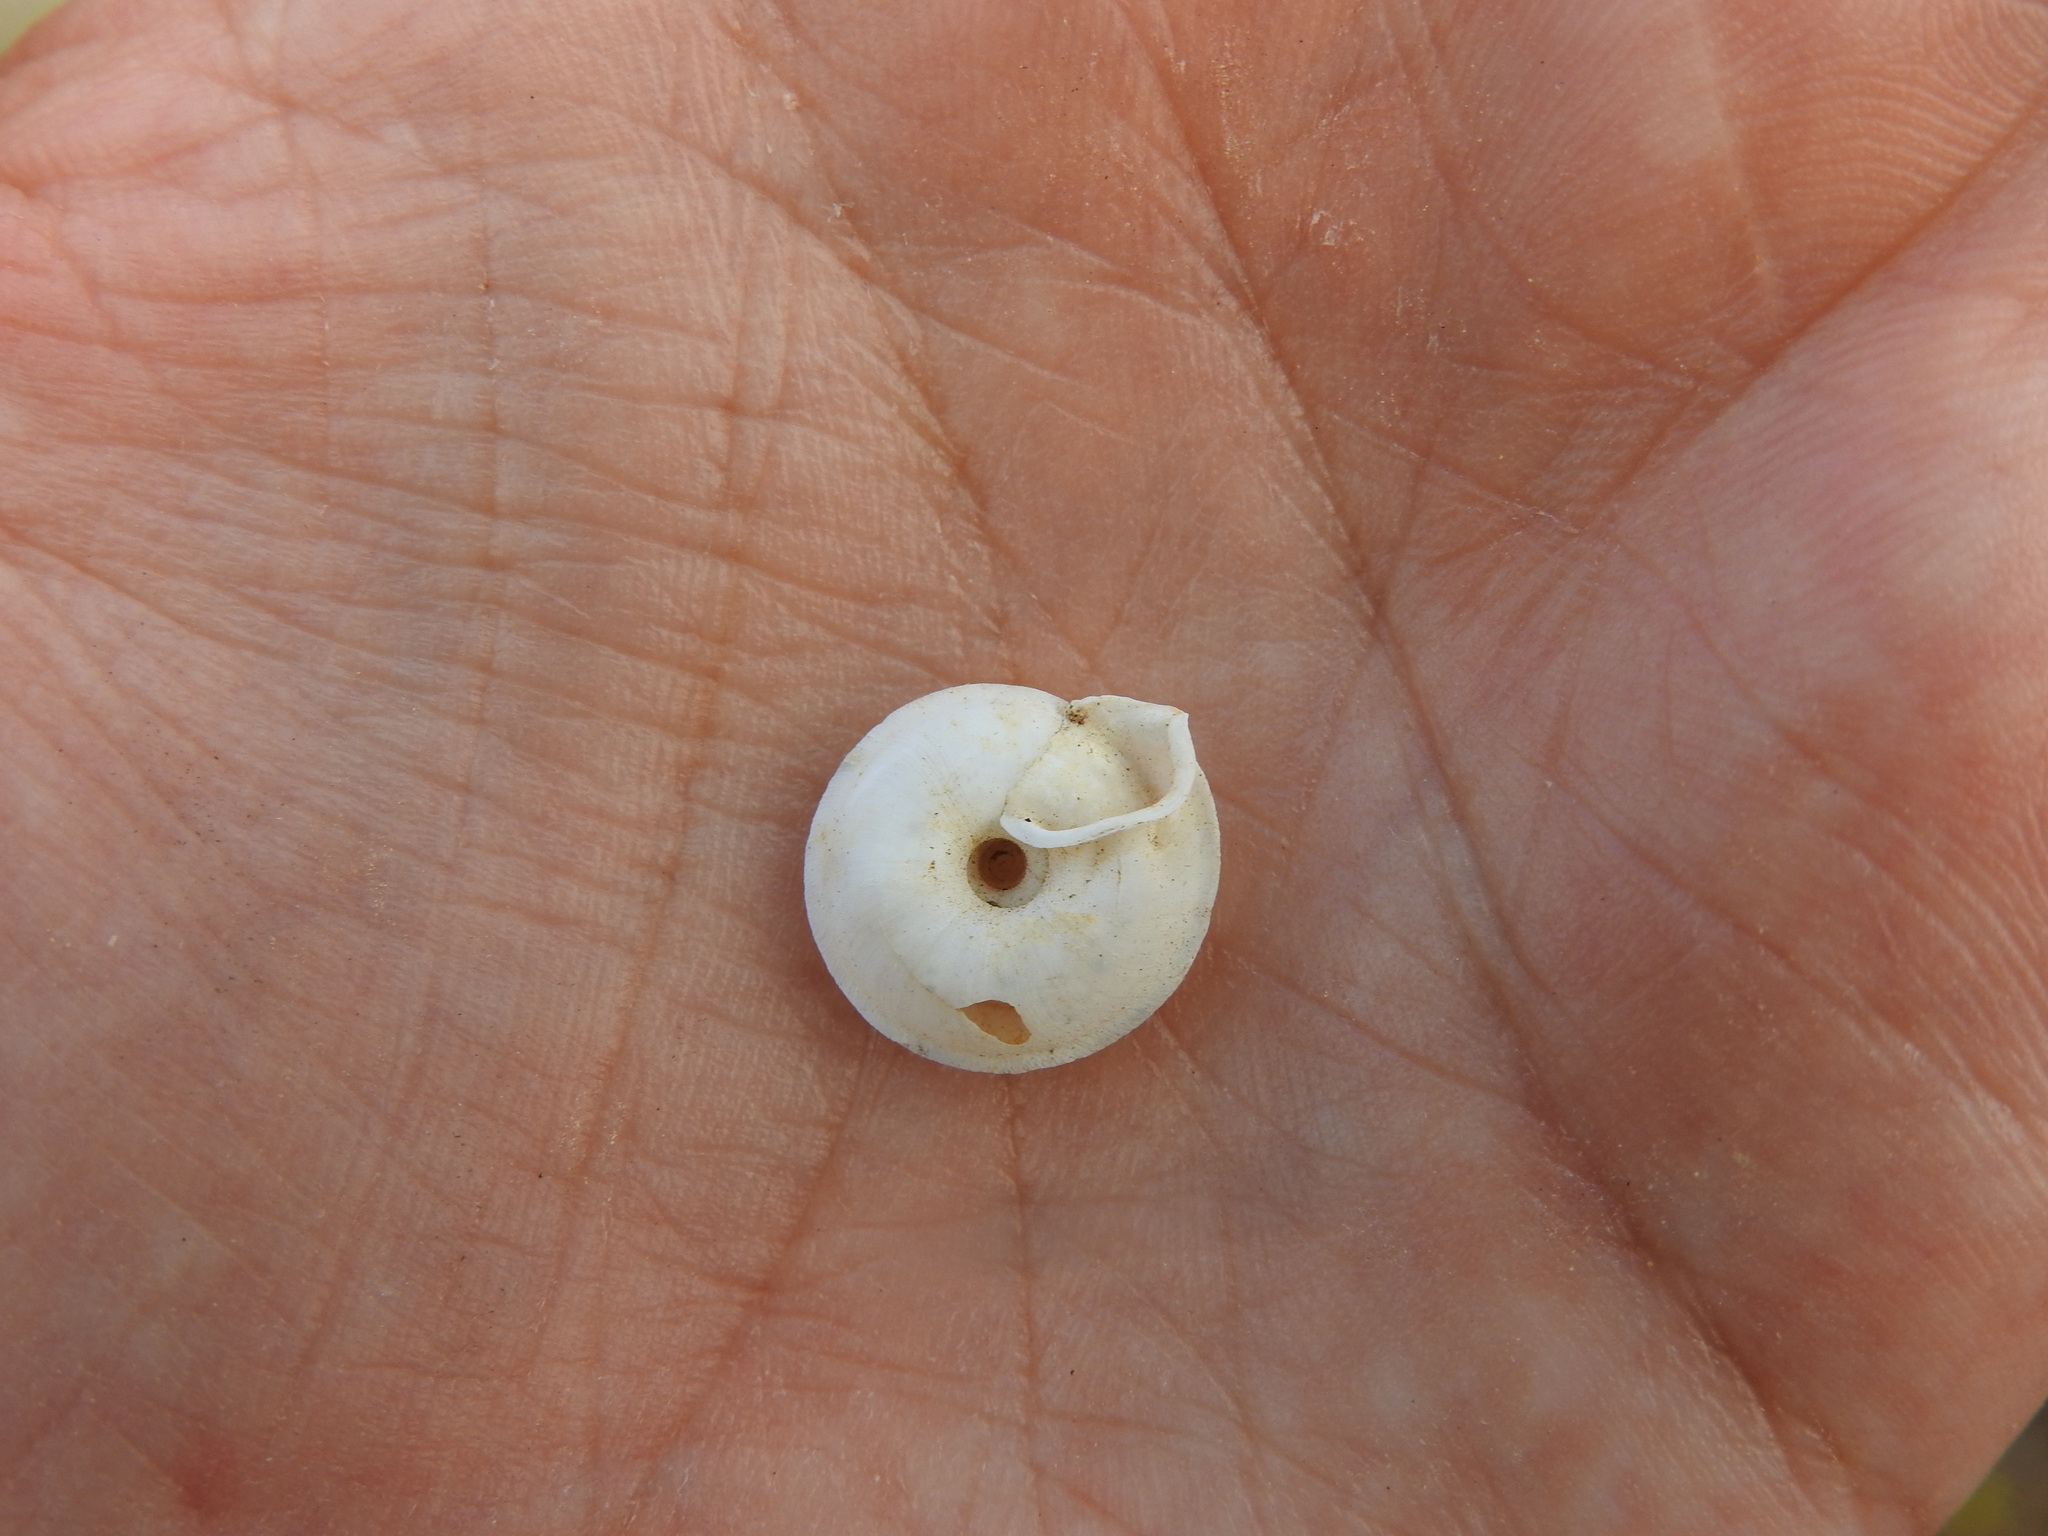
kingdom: Animalia
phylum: Mollusca
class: Gastropoda
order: Stylommatophora
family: Trissexodontidae
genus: Gittenbergeria
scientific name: Gittenbergeria turriplana
